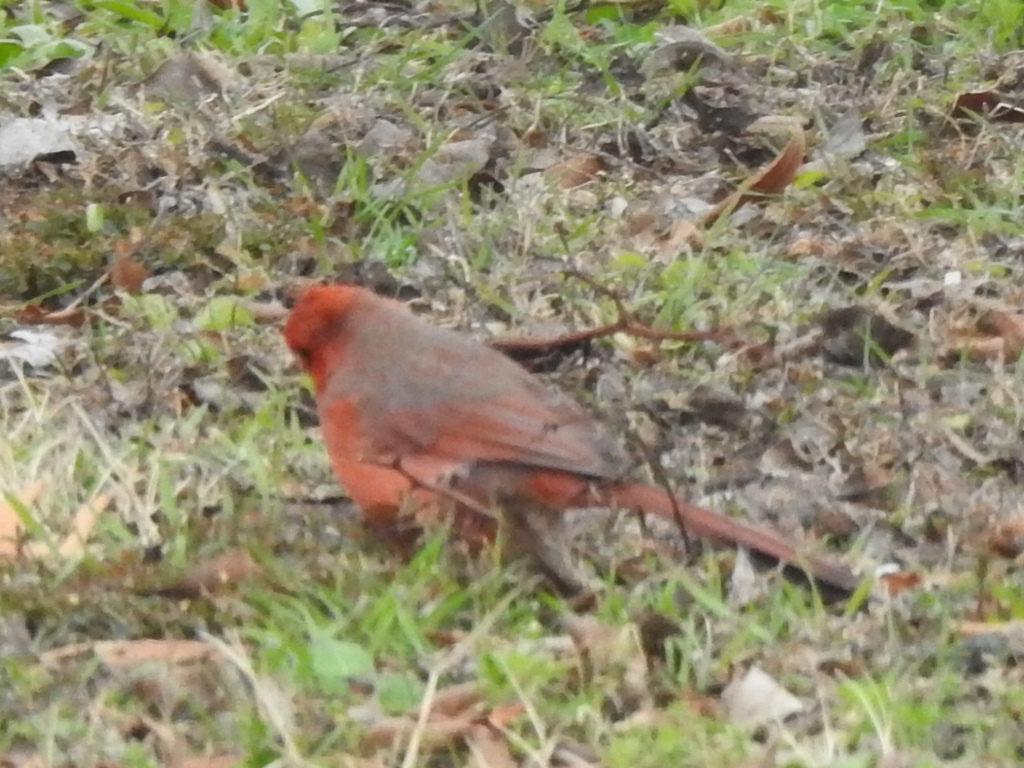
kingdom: Animalia
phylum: Chordata
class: Aves
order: Passeriformes
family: Cardinalidae
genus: Cardinalis
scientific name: Cardinalis cardinalis
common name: Northern cardinal
